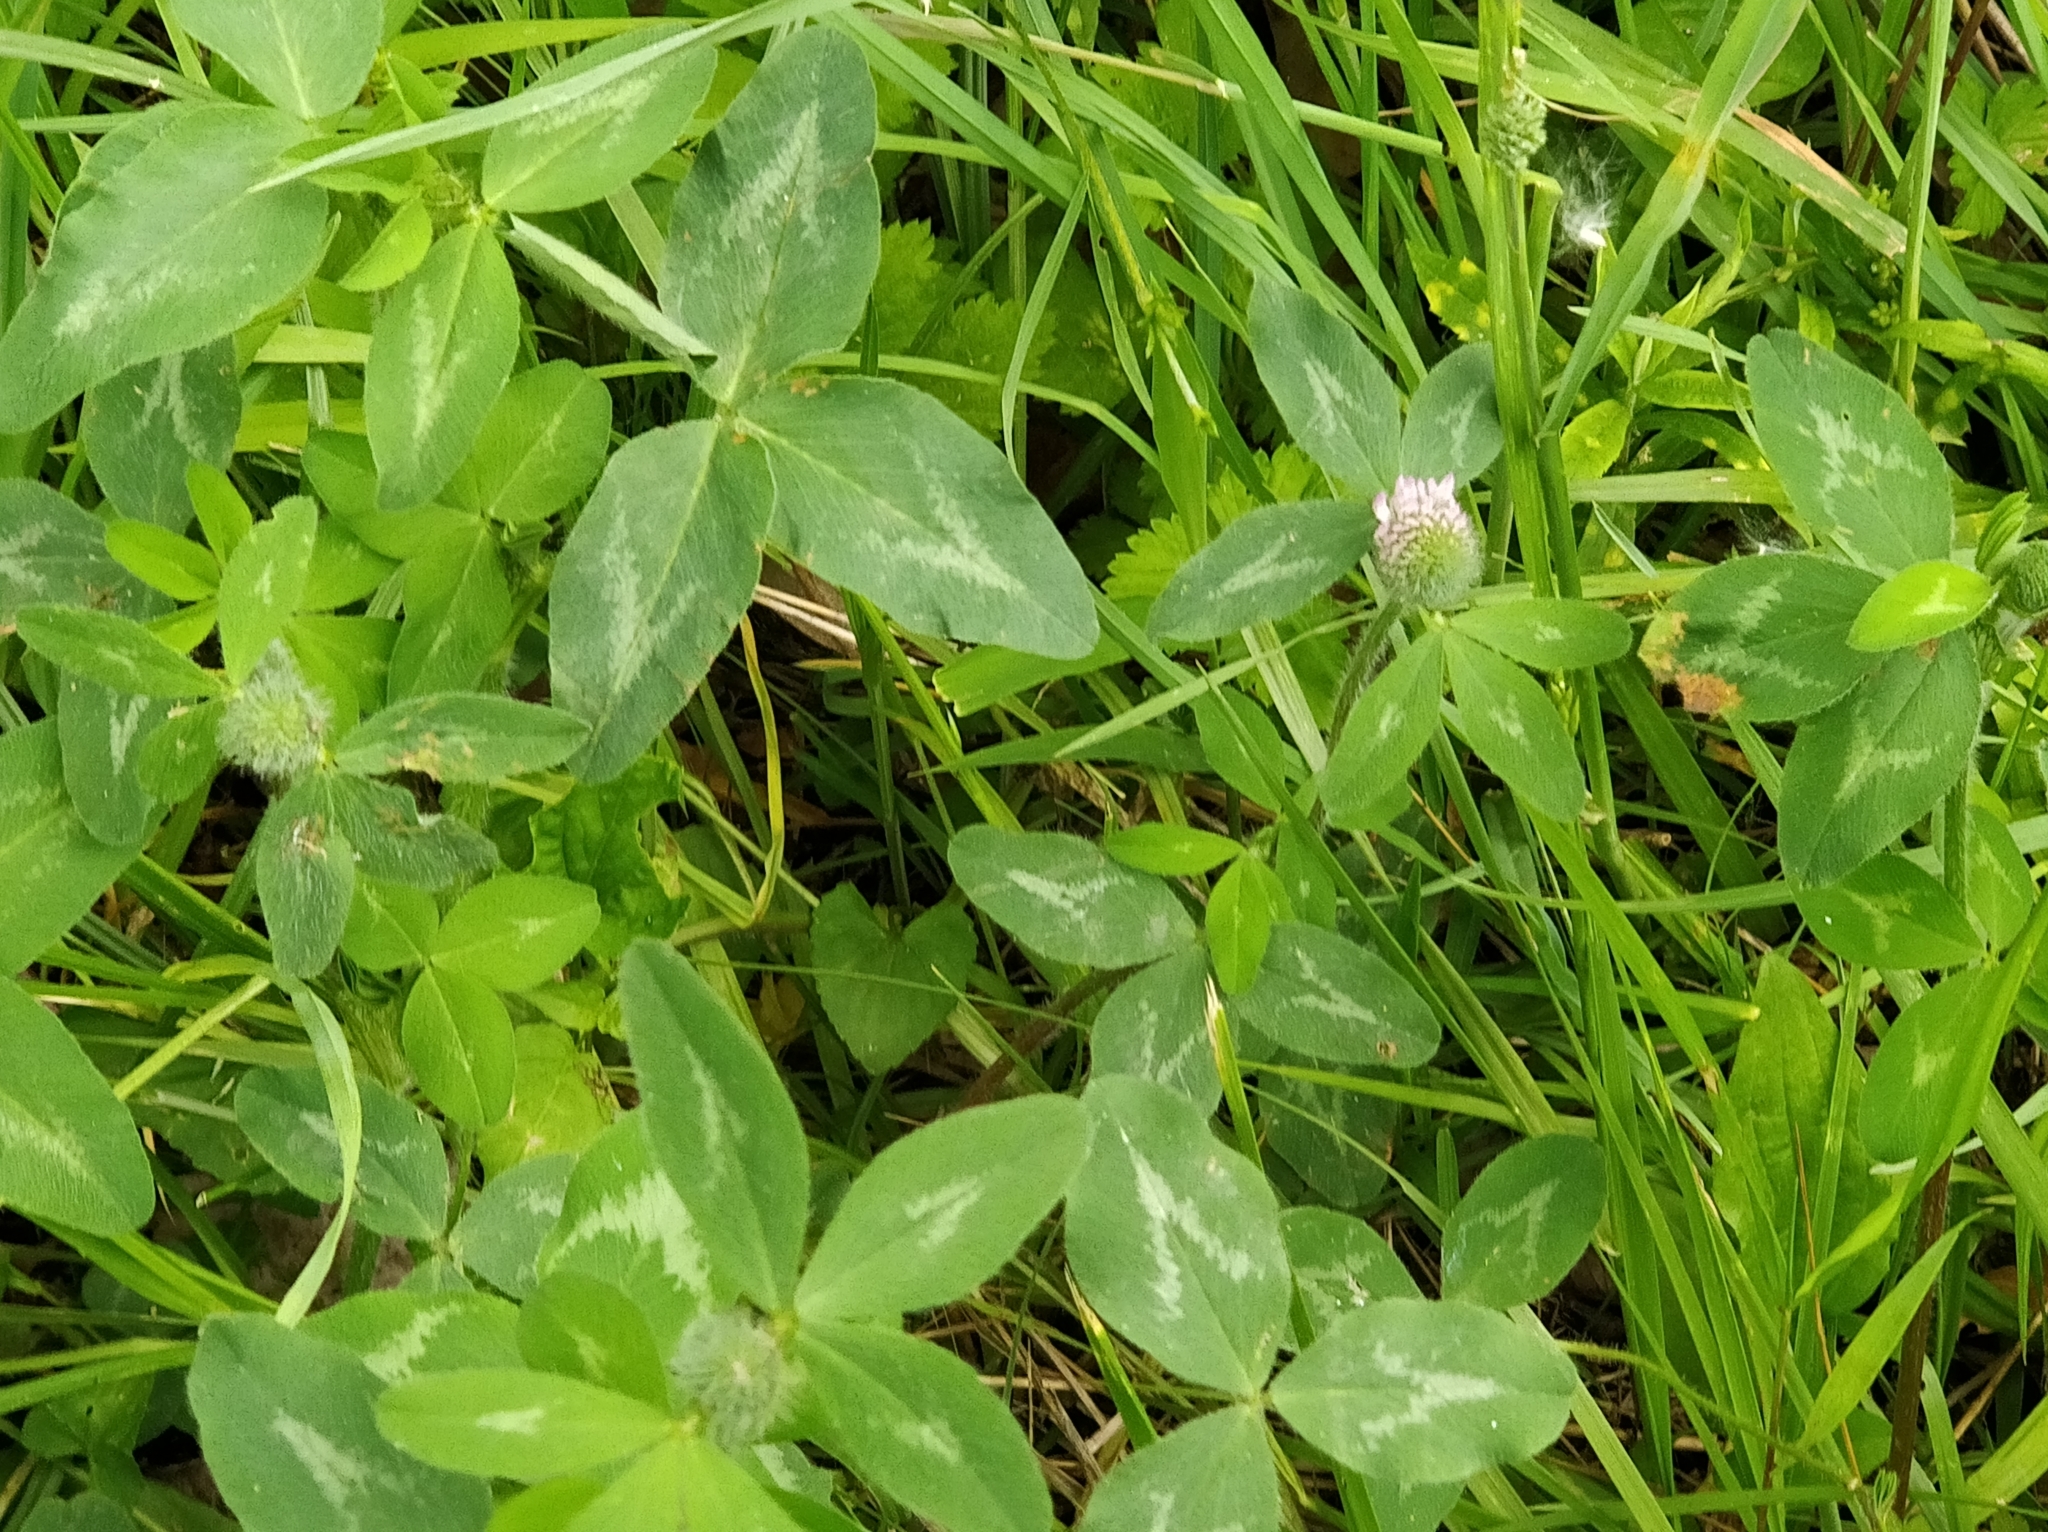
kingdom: Plantae
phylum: Tracheophyta
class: Magnoliopsida
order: Fabales
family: Fabaceae
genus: Trifolium
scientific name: Trifolium pratense
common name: Red clover
